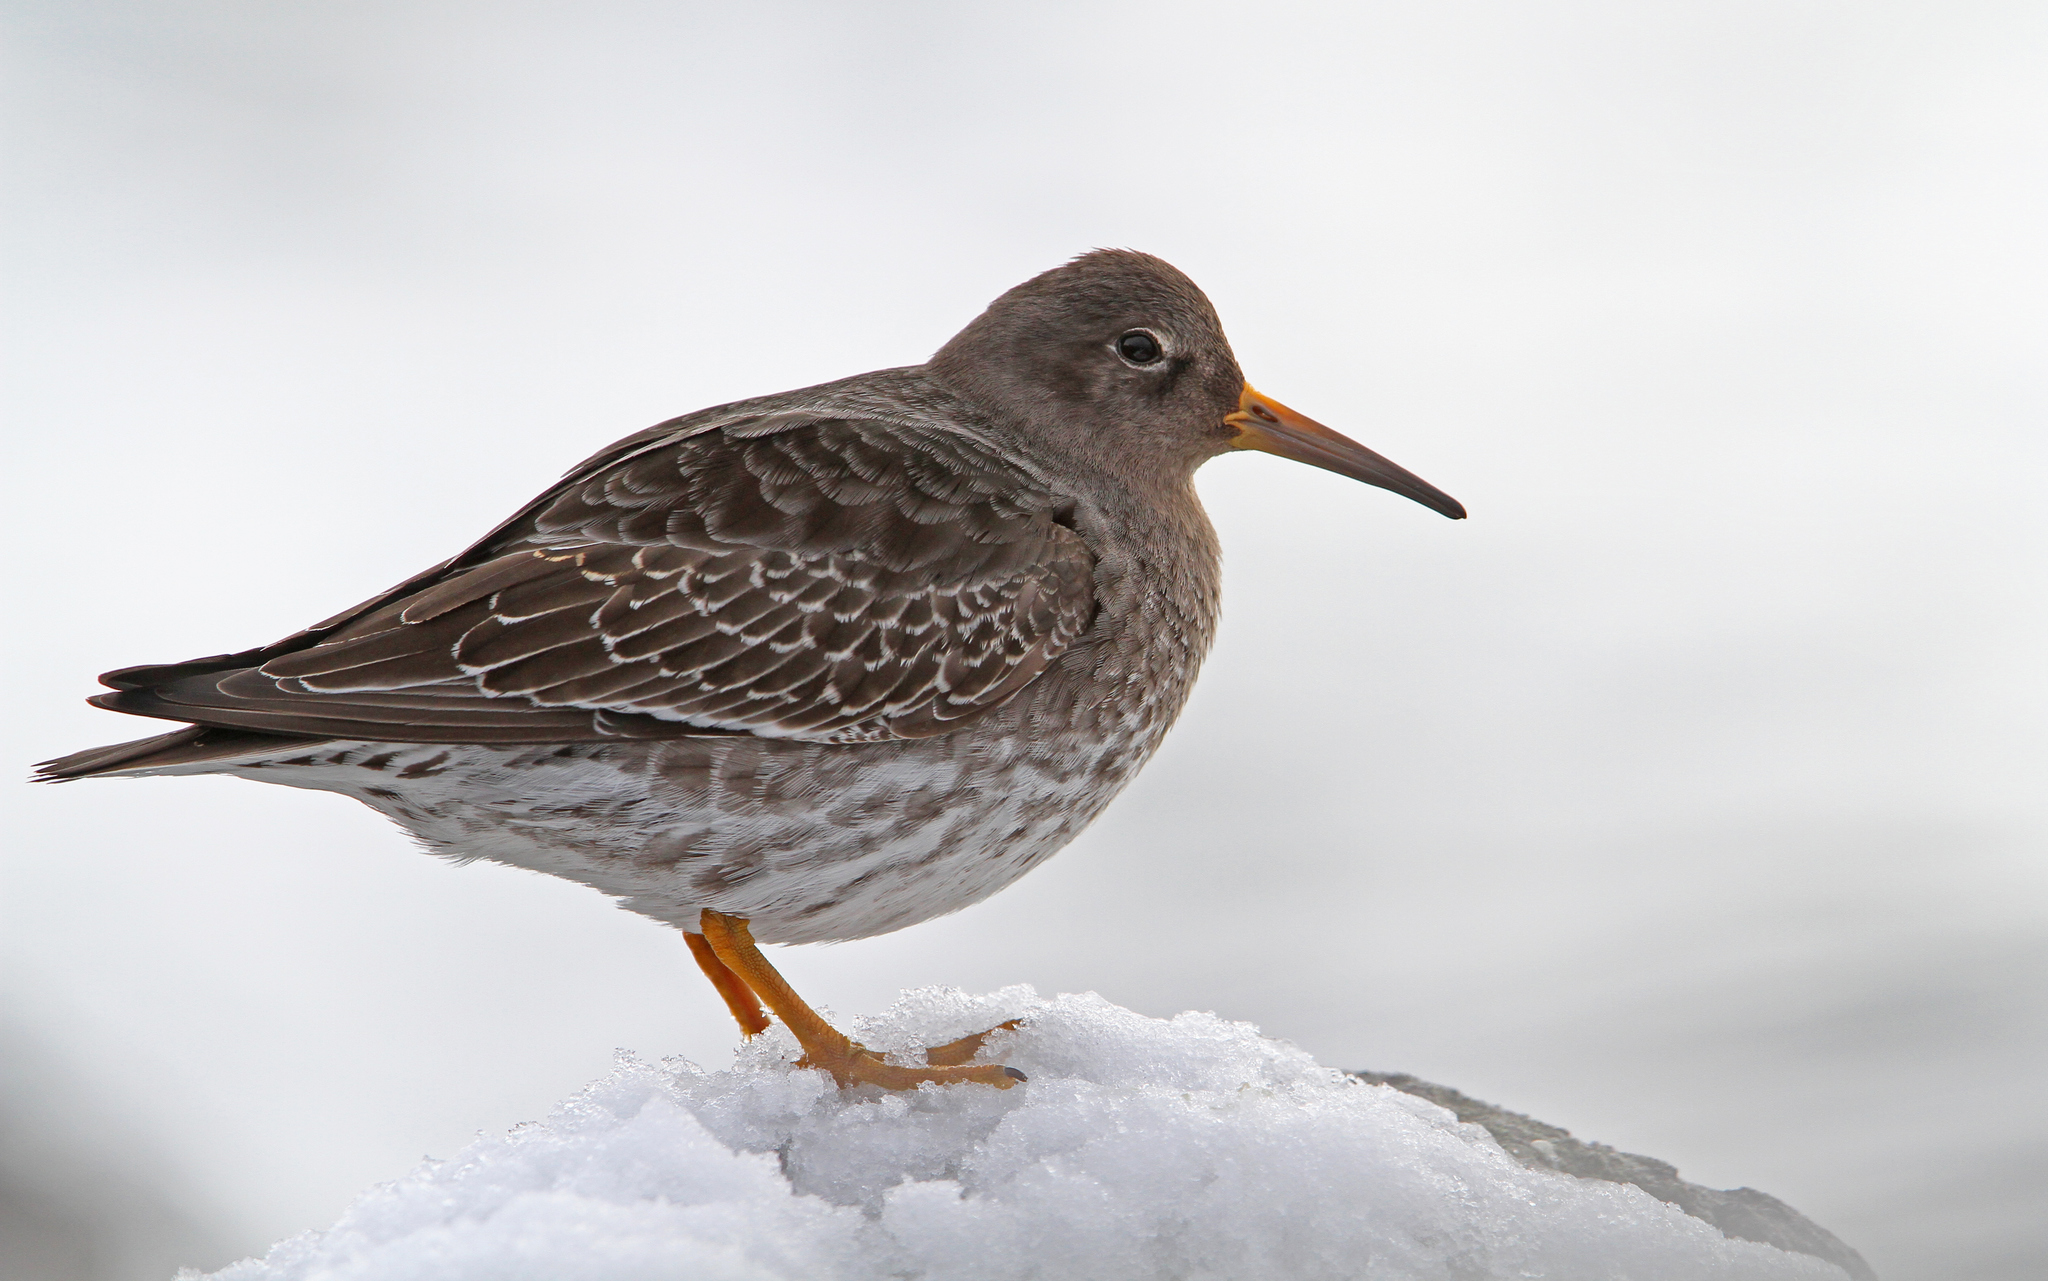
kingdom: Animalia
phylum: Chordata
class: Aves
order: Charadriiformes
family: Scolopacidae
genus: Calidris
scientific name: Calidris maritima
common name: Purple sandpiper
